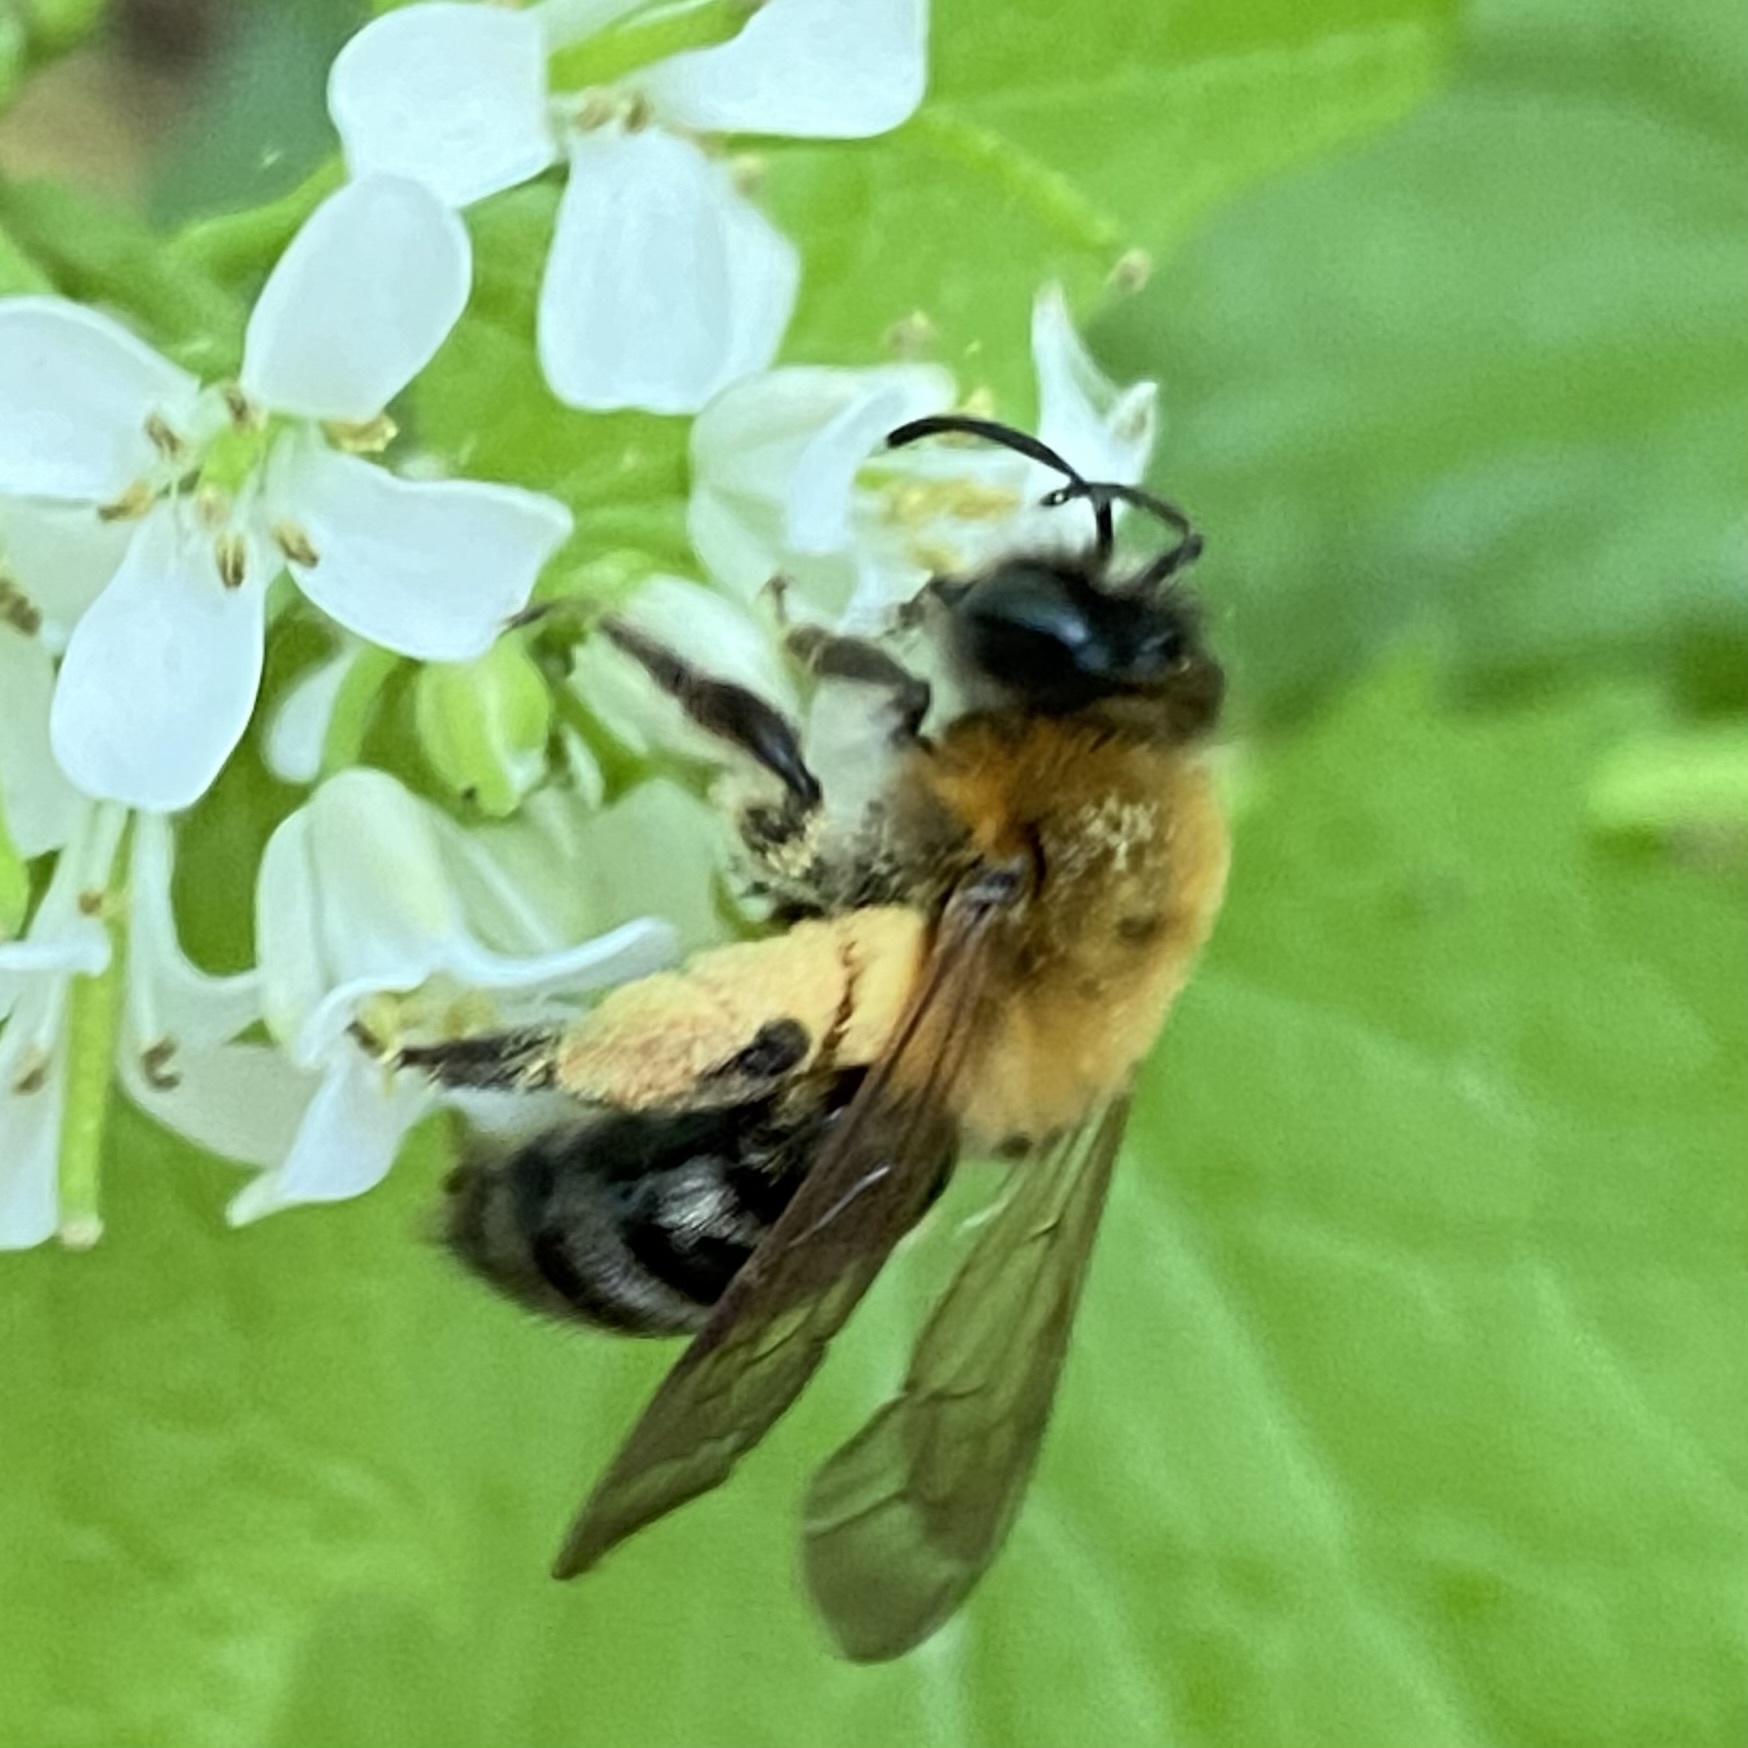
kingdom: Animalia
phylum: Arthropoda
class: Insecta
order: Hymenoptera
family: Andrenidae
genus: Andrena
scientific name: Andrena nitida
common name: Grey-patched mining bee
